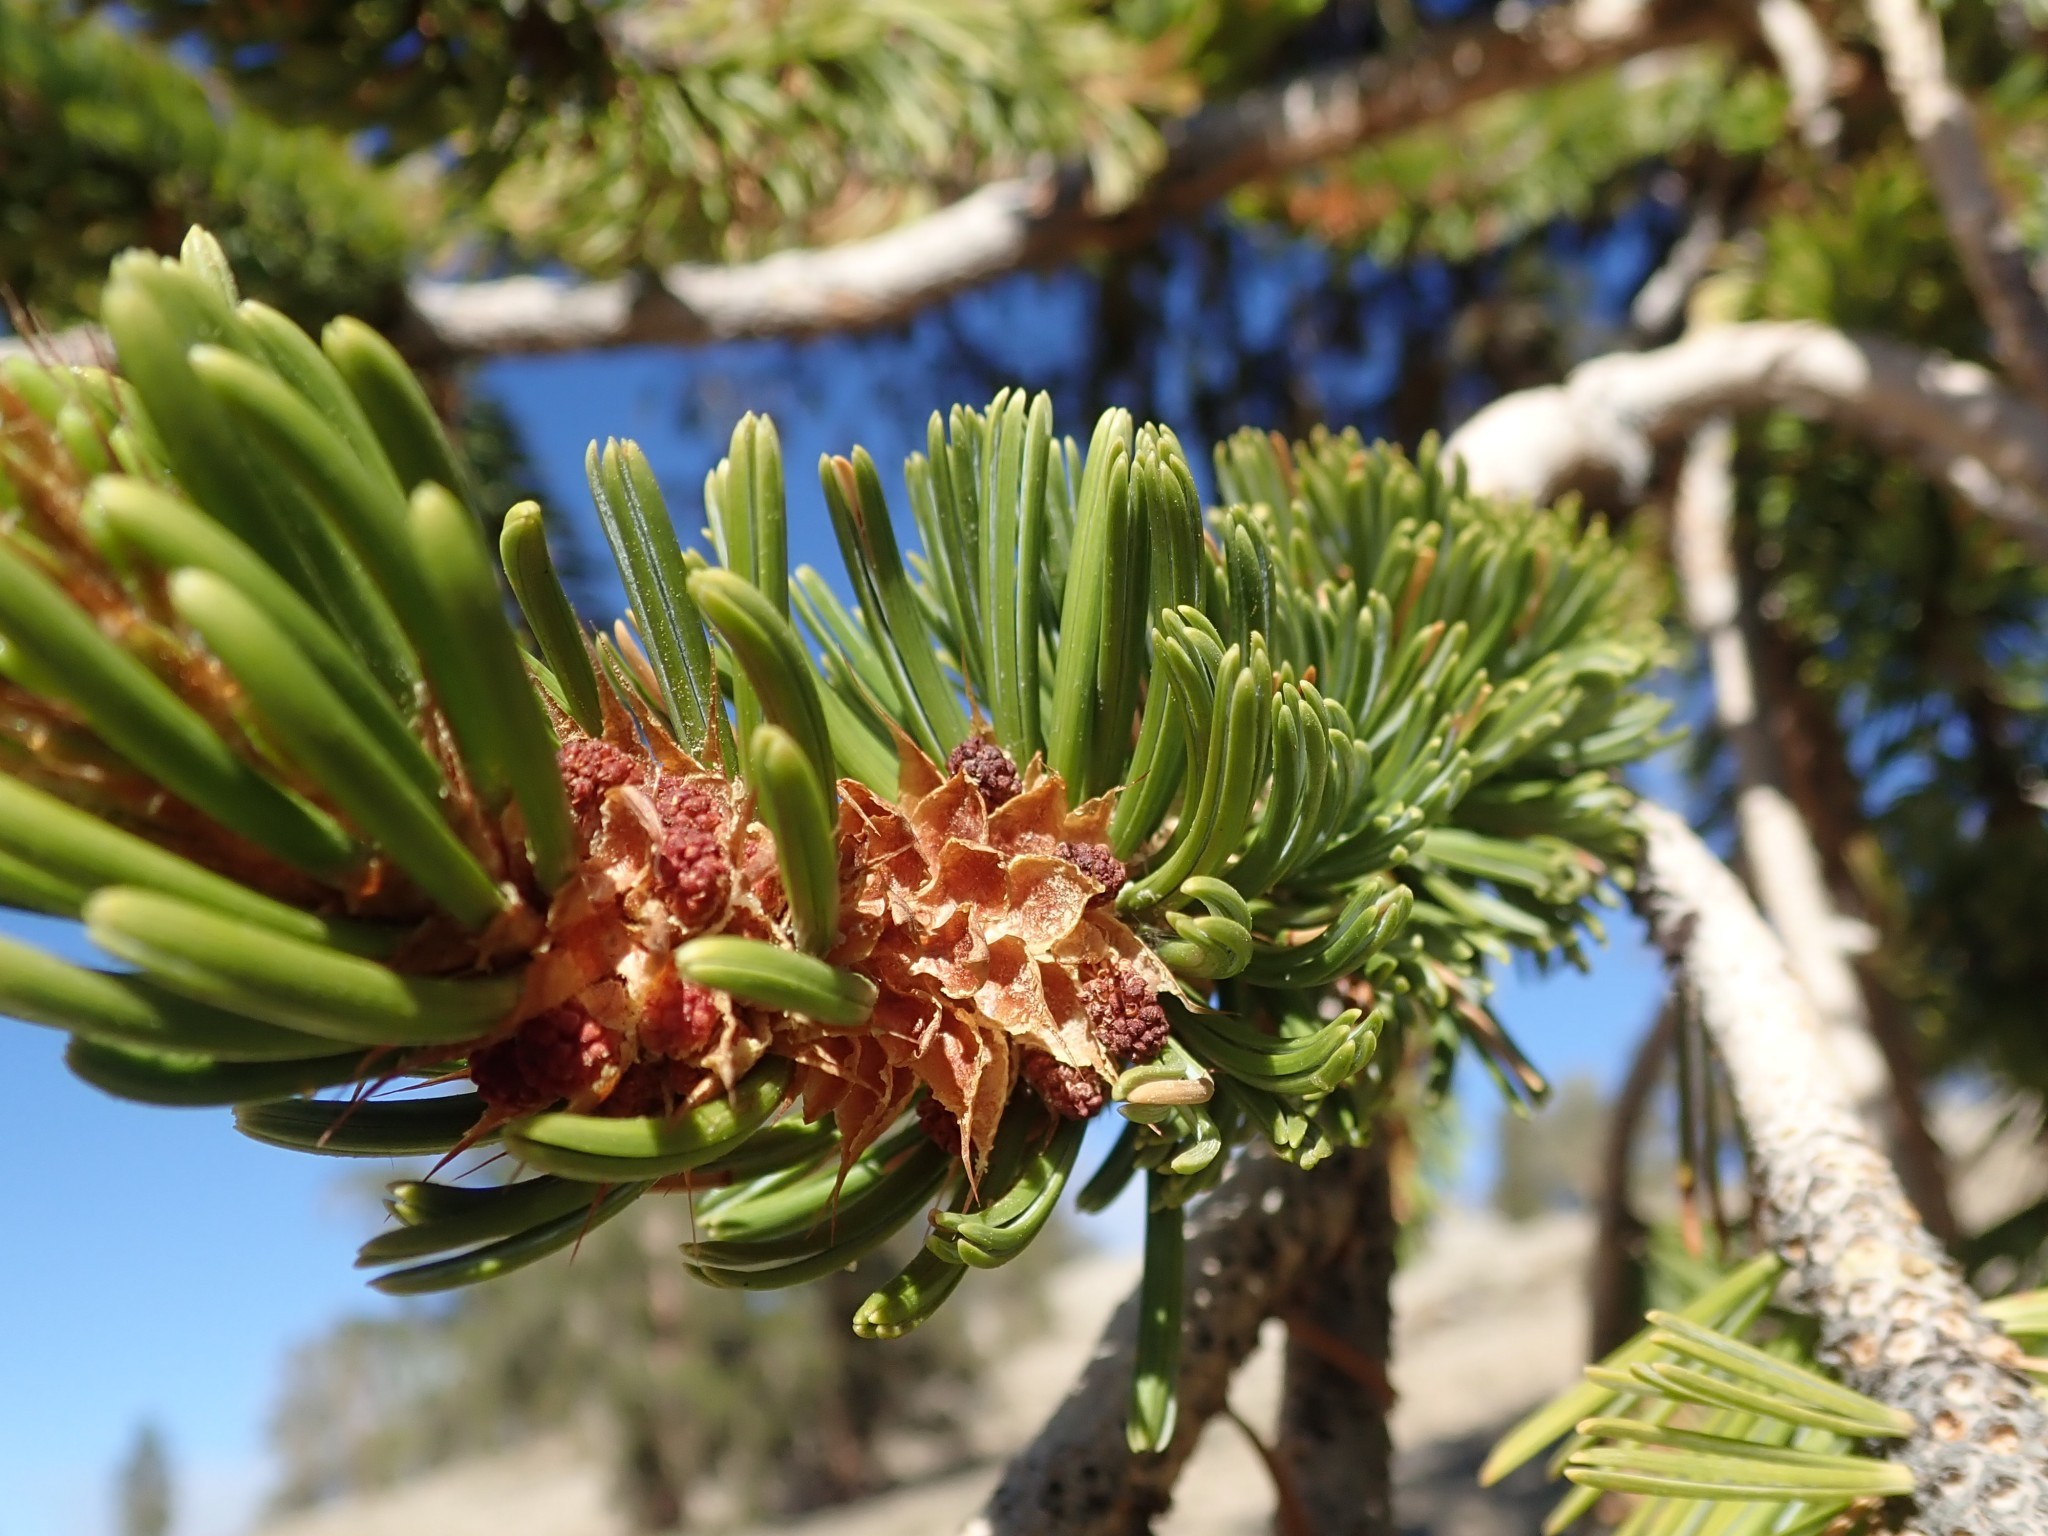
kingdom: Plantae
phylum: Tracheophyta
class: Pinopsida
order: Pinales
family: Pinaceae
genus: Pinus
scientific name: Pinus longaeva
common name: Intermountain bristlecone pine
